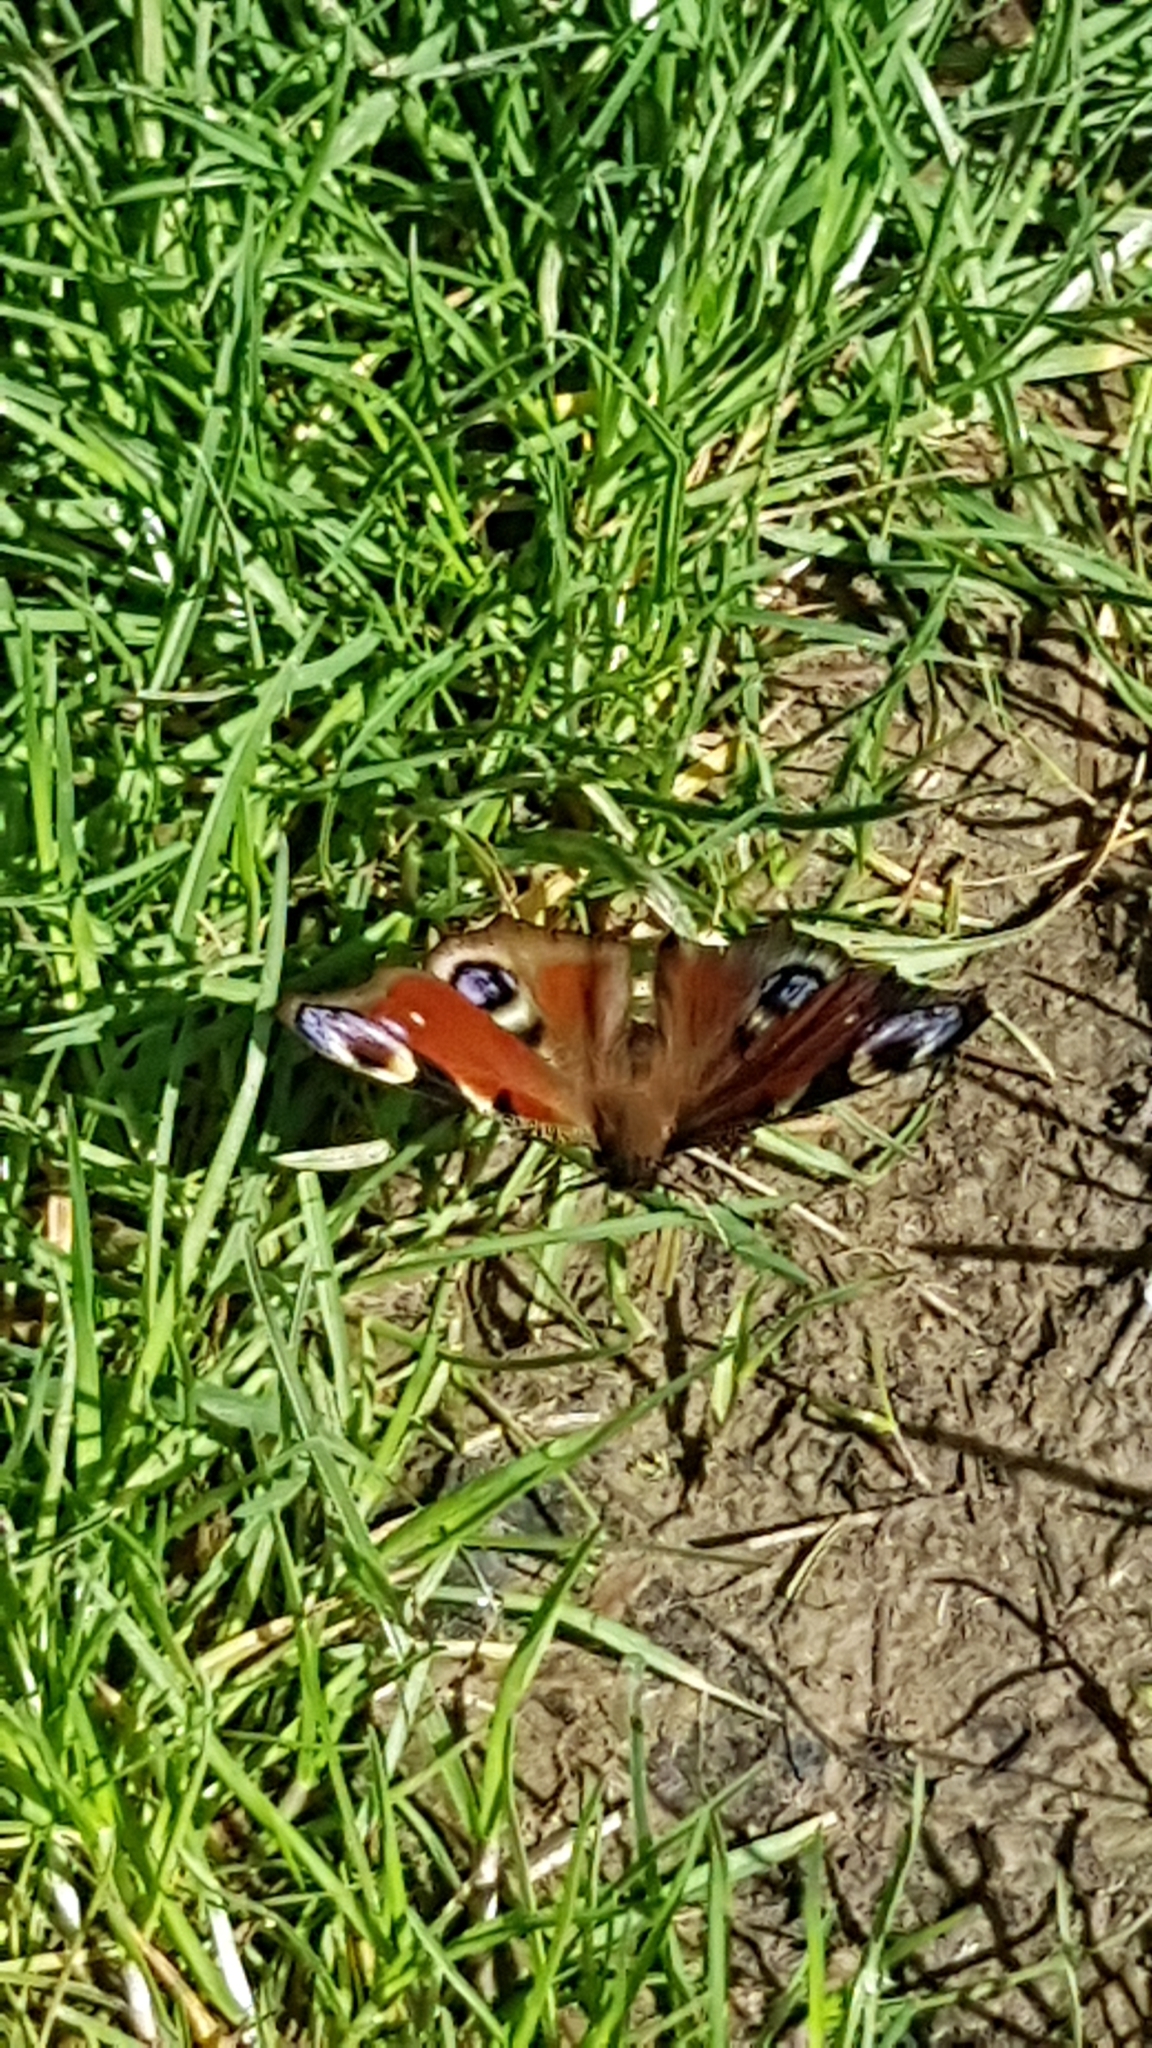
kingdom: Animalia
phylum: Arthropoda
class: Insecta
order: Lepidoptera
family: Nymphalidae
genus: Aglais
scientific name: Aglais io
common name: Peacock
